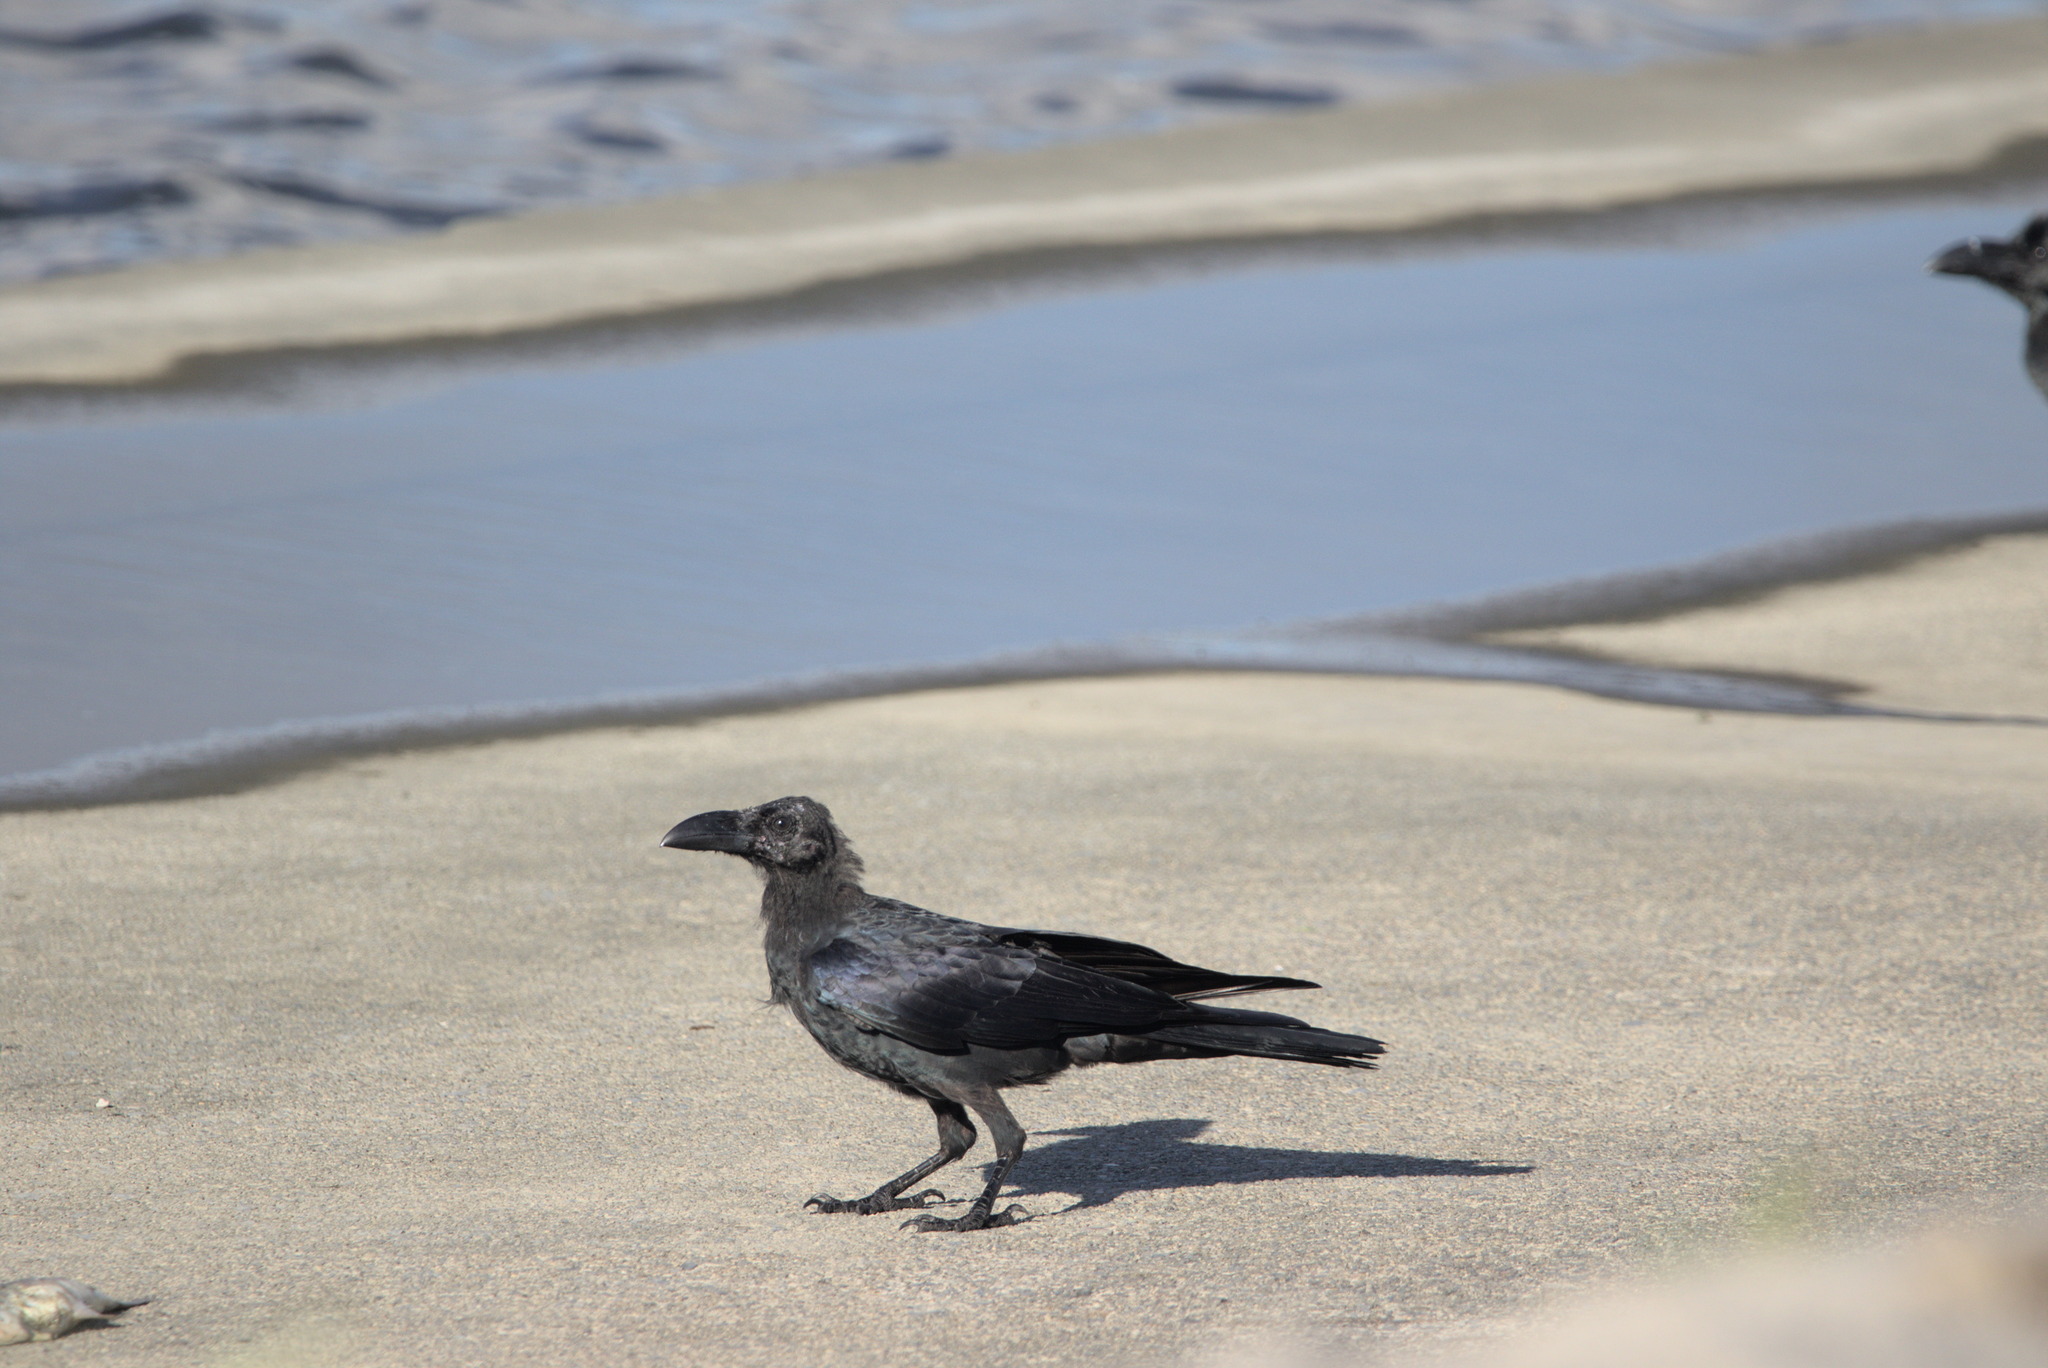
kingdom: Animalia
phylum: Chordata
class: Aves
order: Passeriformes
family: Corvidae
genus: Corvus
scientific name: Corvus macrorhynchos
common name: Large-billed crow
